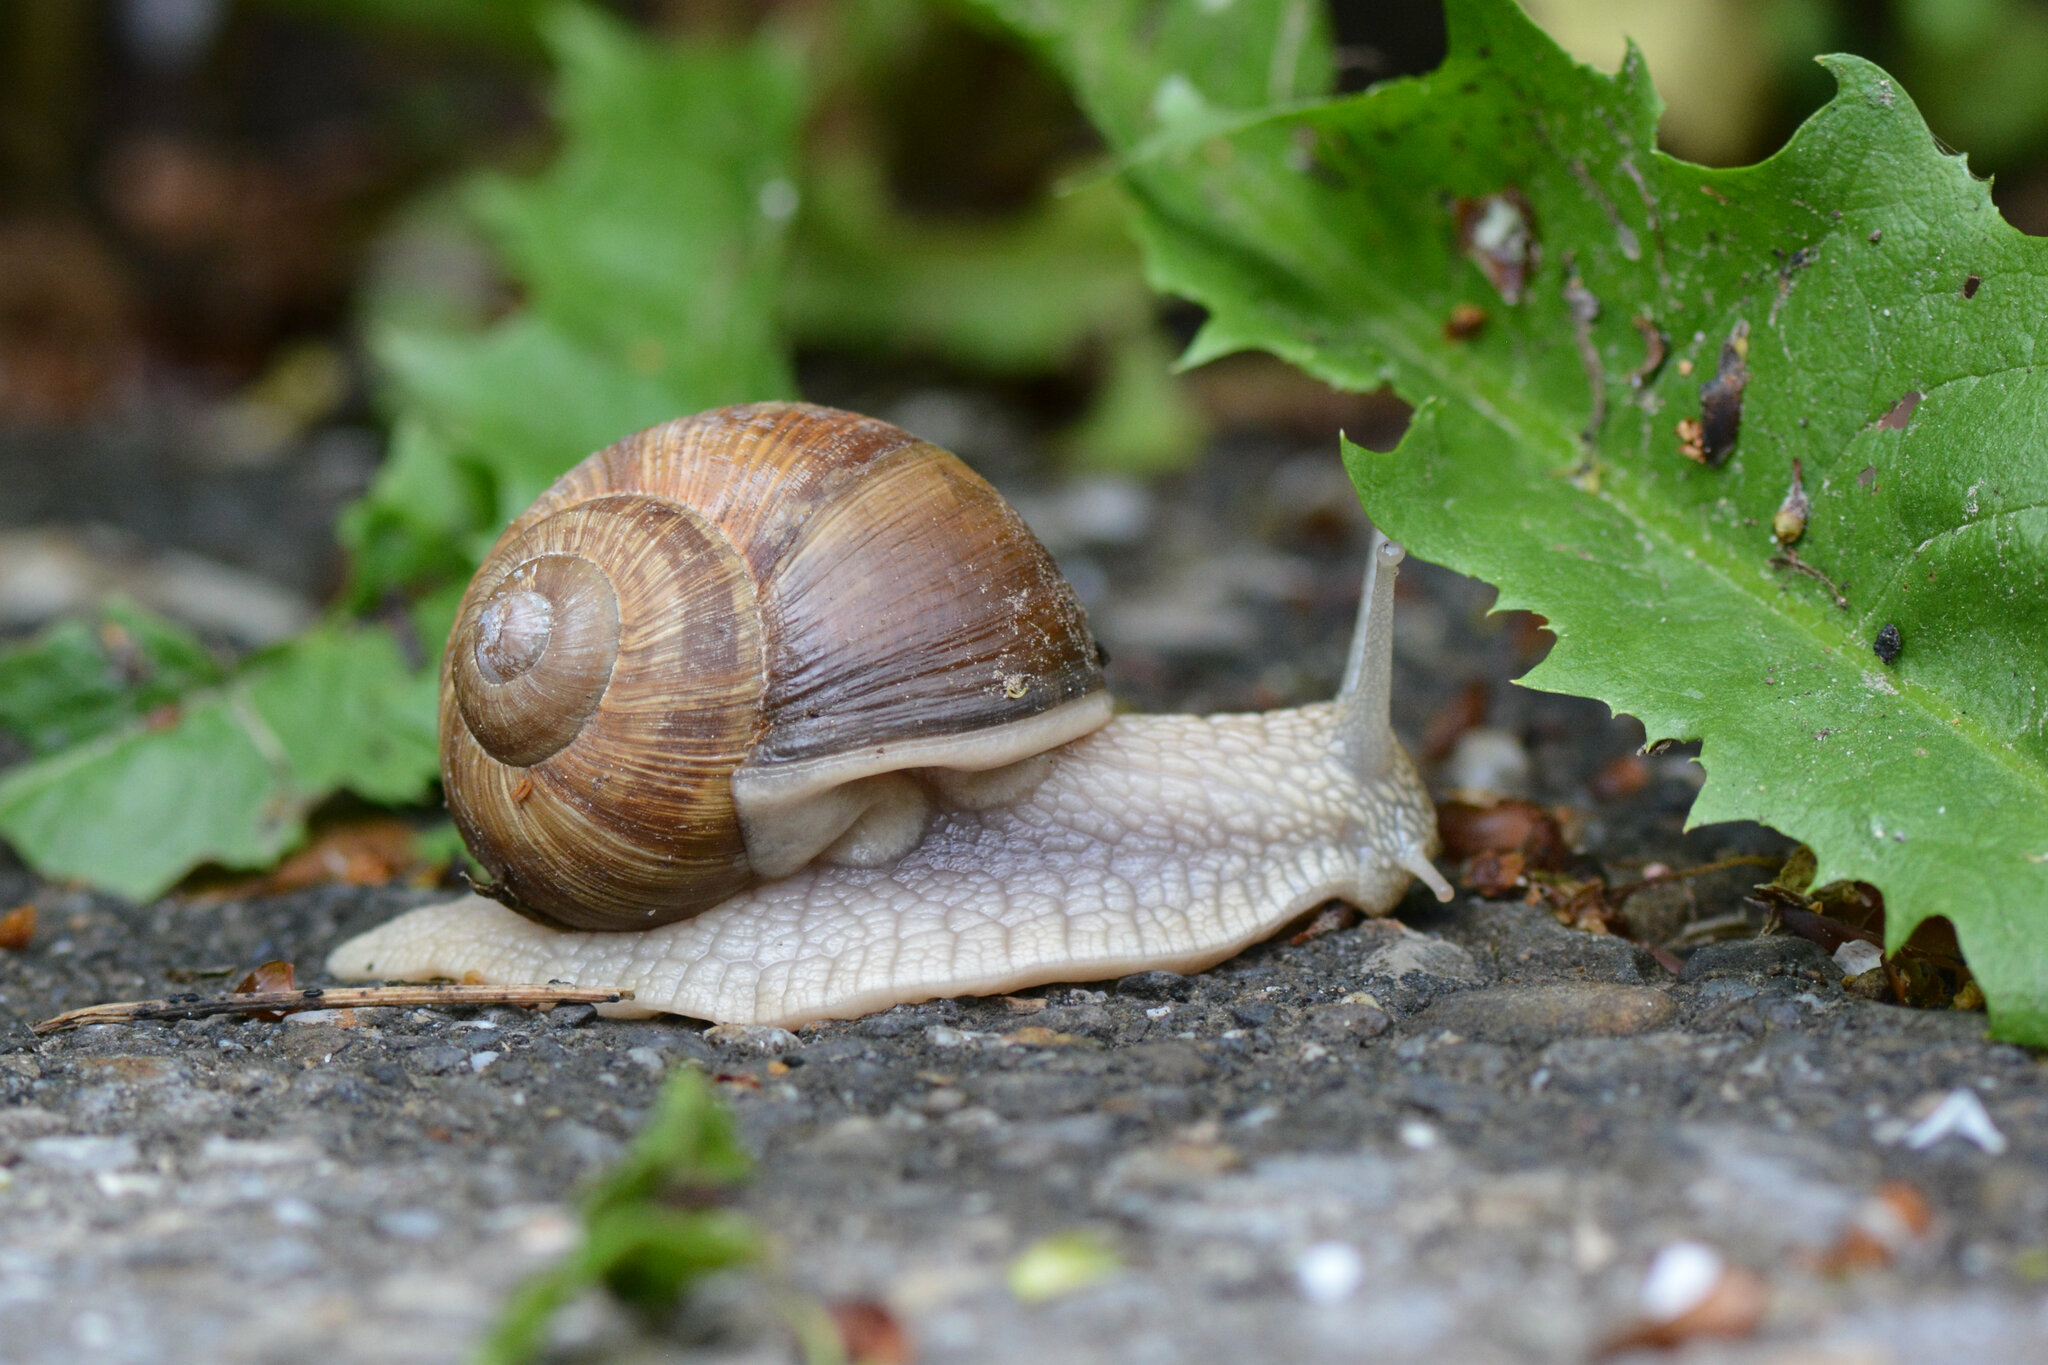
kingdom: Animalia
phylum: Mollusca
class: Gastropoda
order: Stylommatophora
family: Helicidae
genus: Helix
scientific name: Helix pomatia
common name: Roman snail
